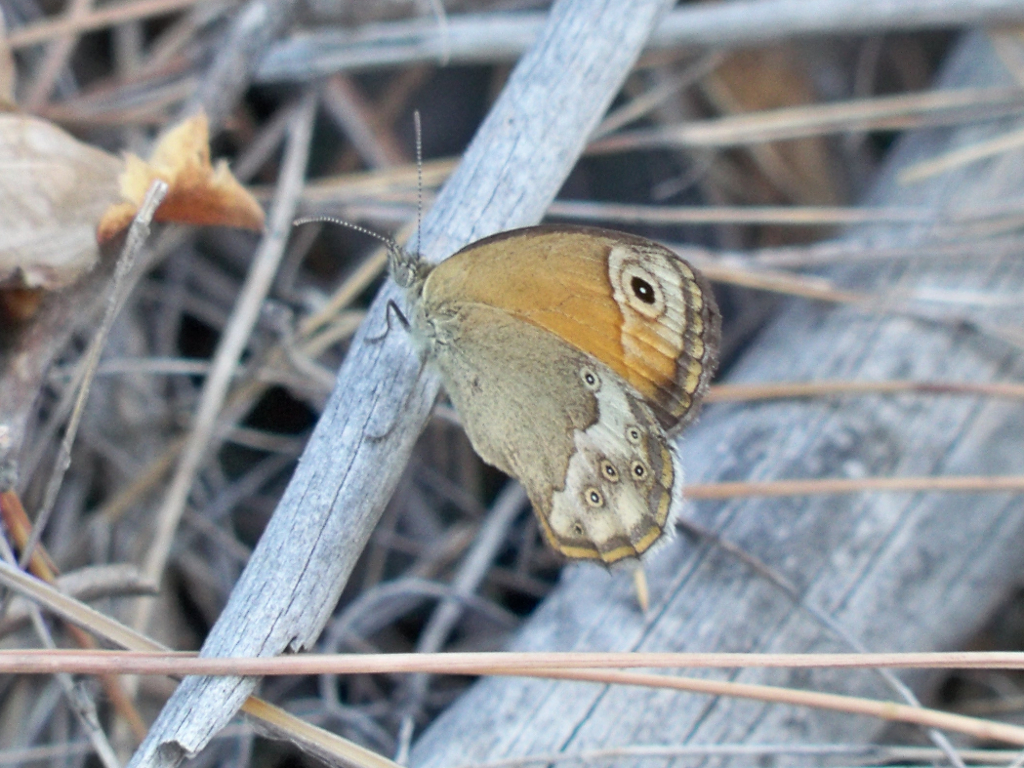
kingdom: Animalia
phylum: Arthropoda
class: Insecta
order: Lepidoptera
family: Nymphalidae
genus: Coenonympha
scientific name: Coenonympha dorus
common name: Dusky heath
